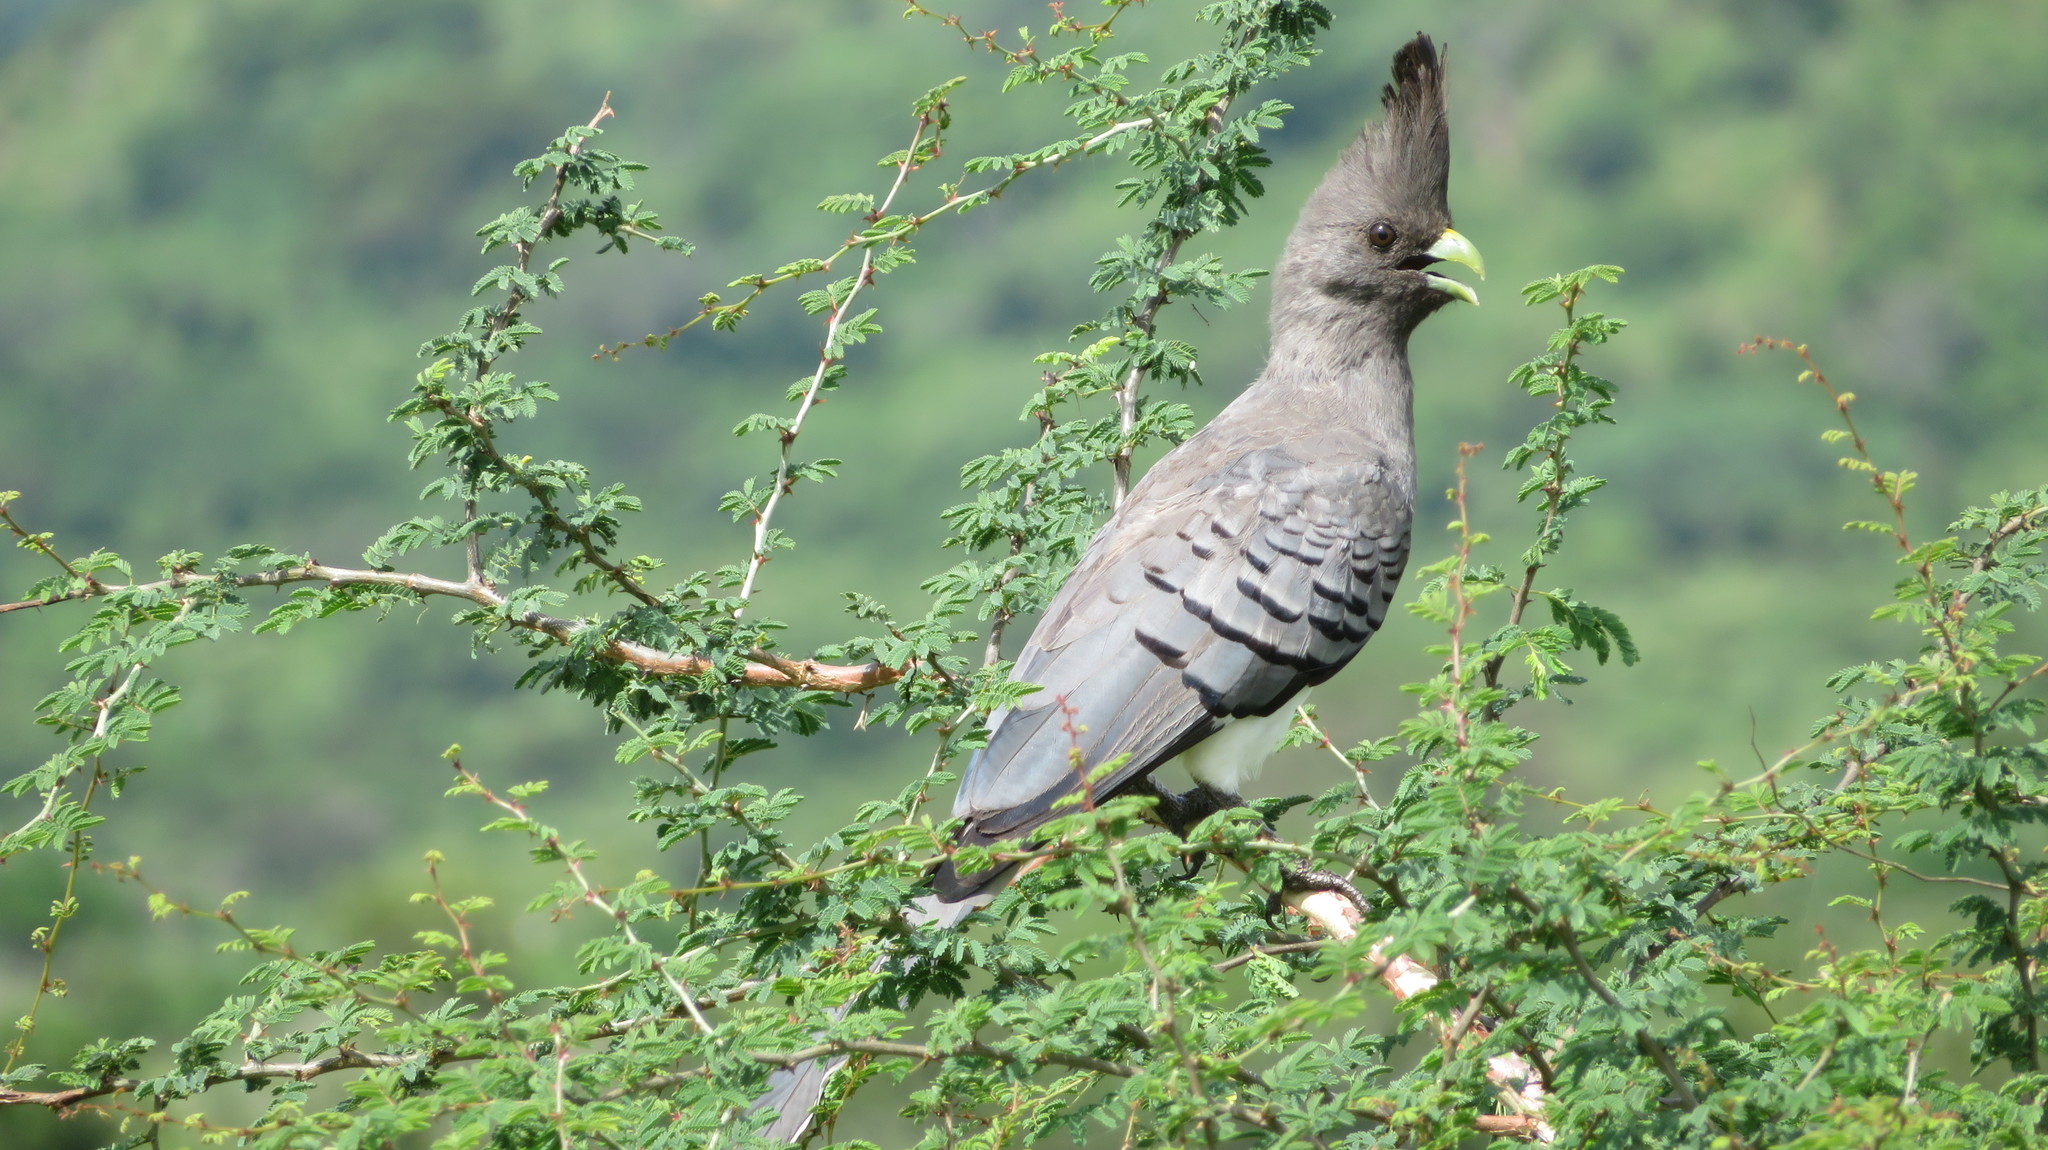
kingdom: Animalia
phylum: Chordata
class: Aves
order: Musophagiformes
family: Musophagidae
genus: Corythaixoides
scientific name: Corythaixoides leucogaster
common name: White-bellied go-away-bird
